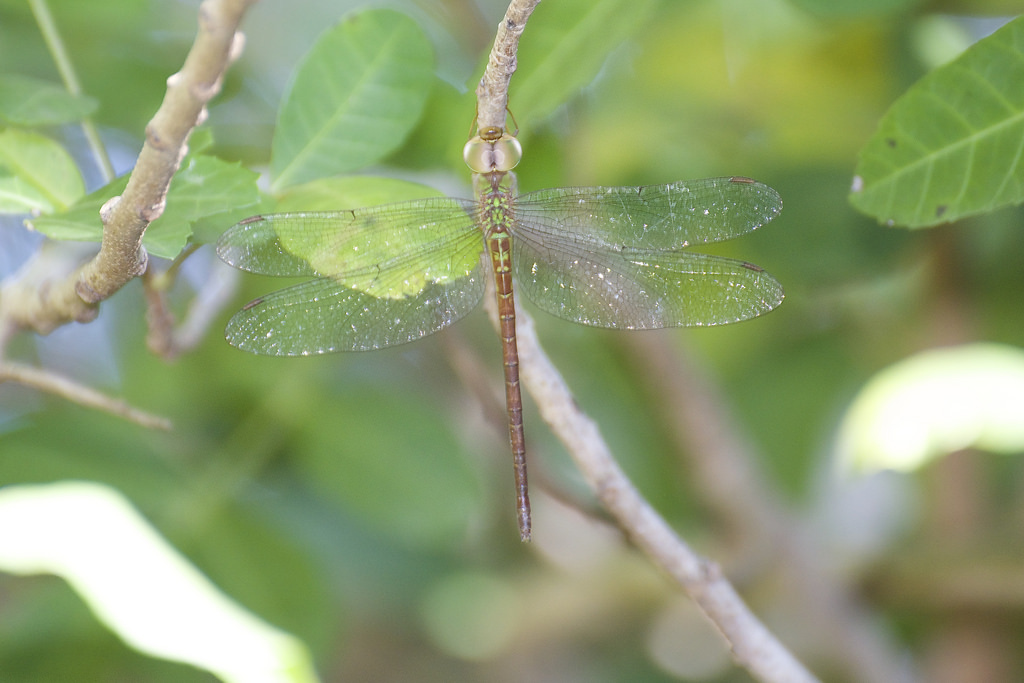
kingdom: Animalia
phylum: Arthropoda
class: Insecta
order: Odonata
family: Aeshnidae
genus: Triacanthagyna
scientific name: Triacanthagyna septima
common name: Pale-green darner
